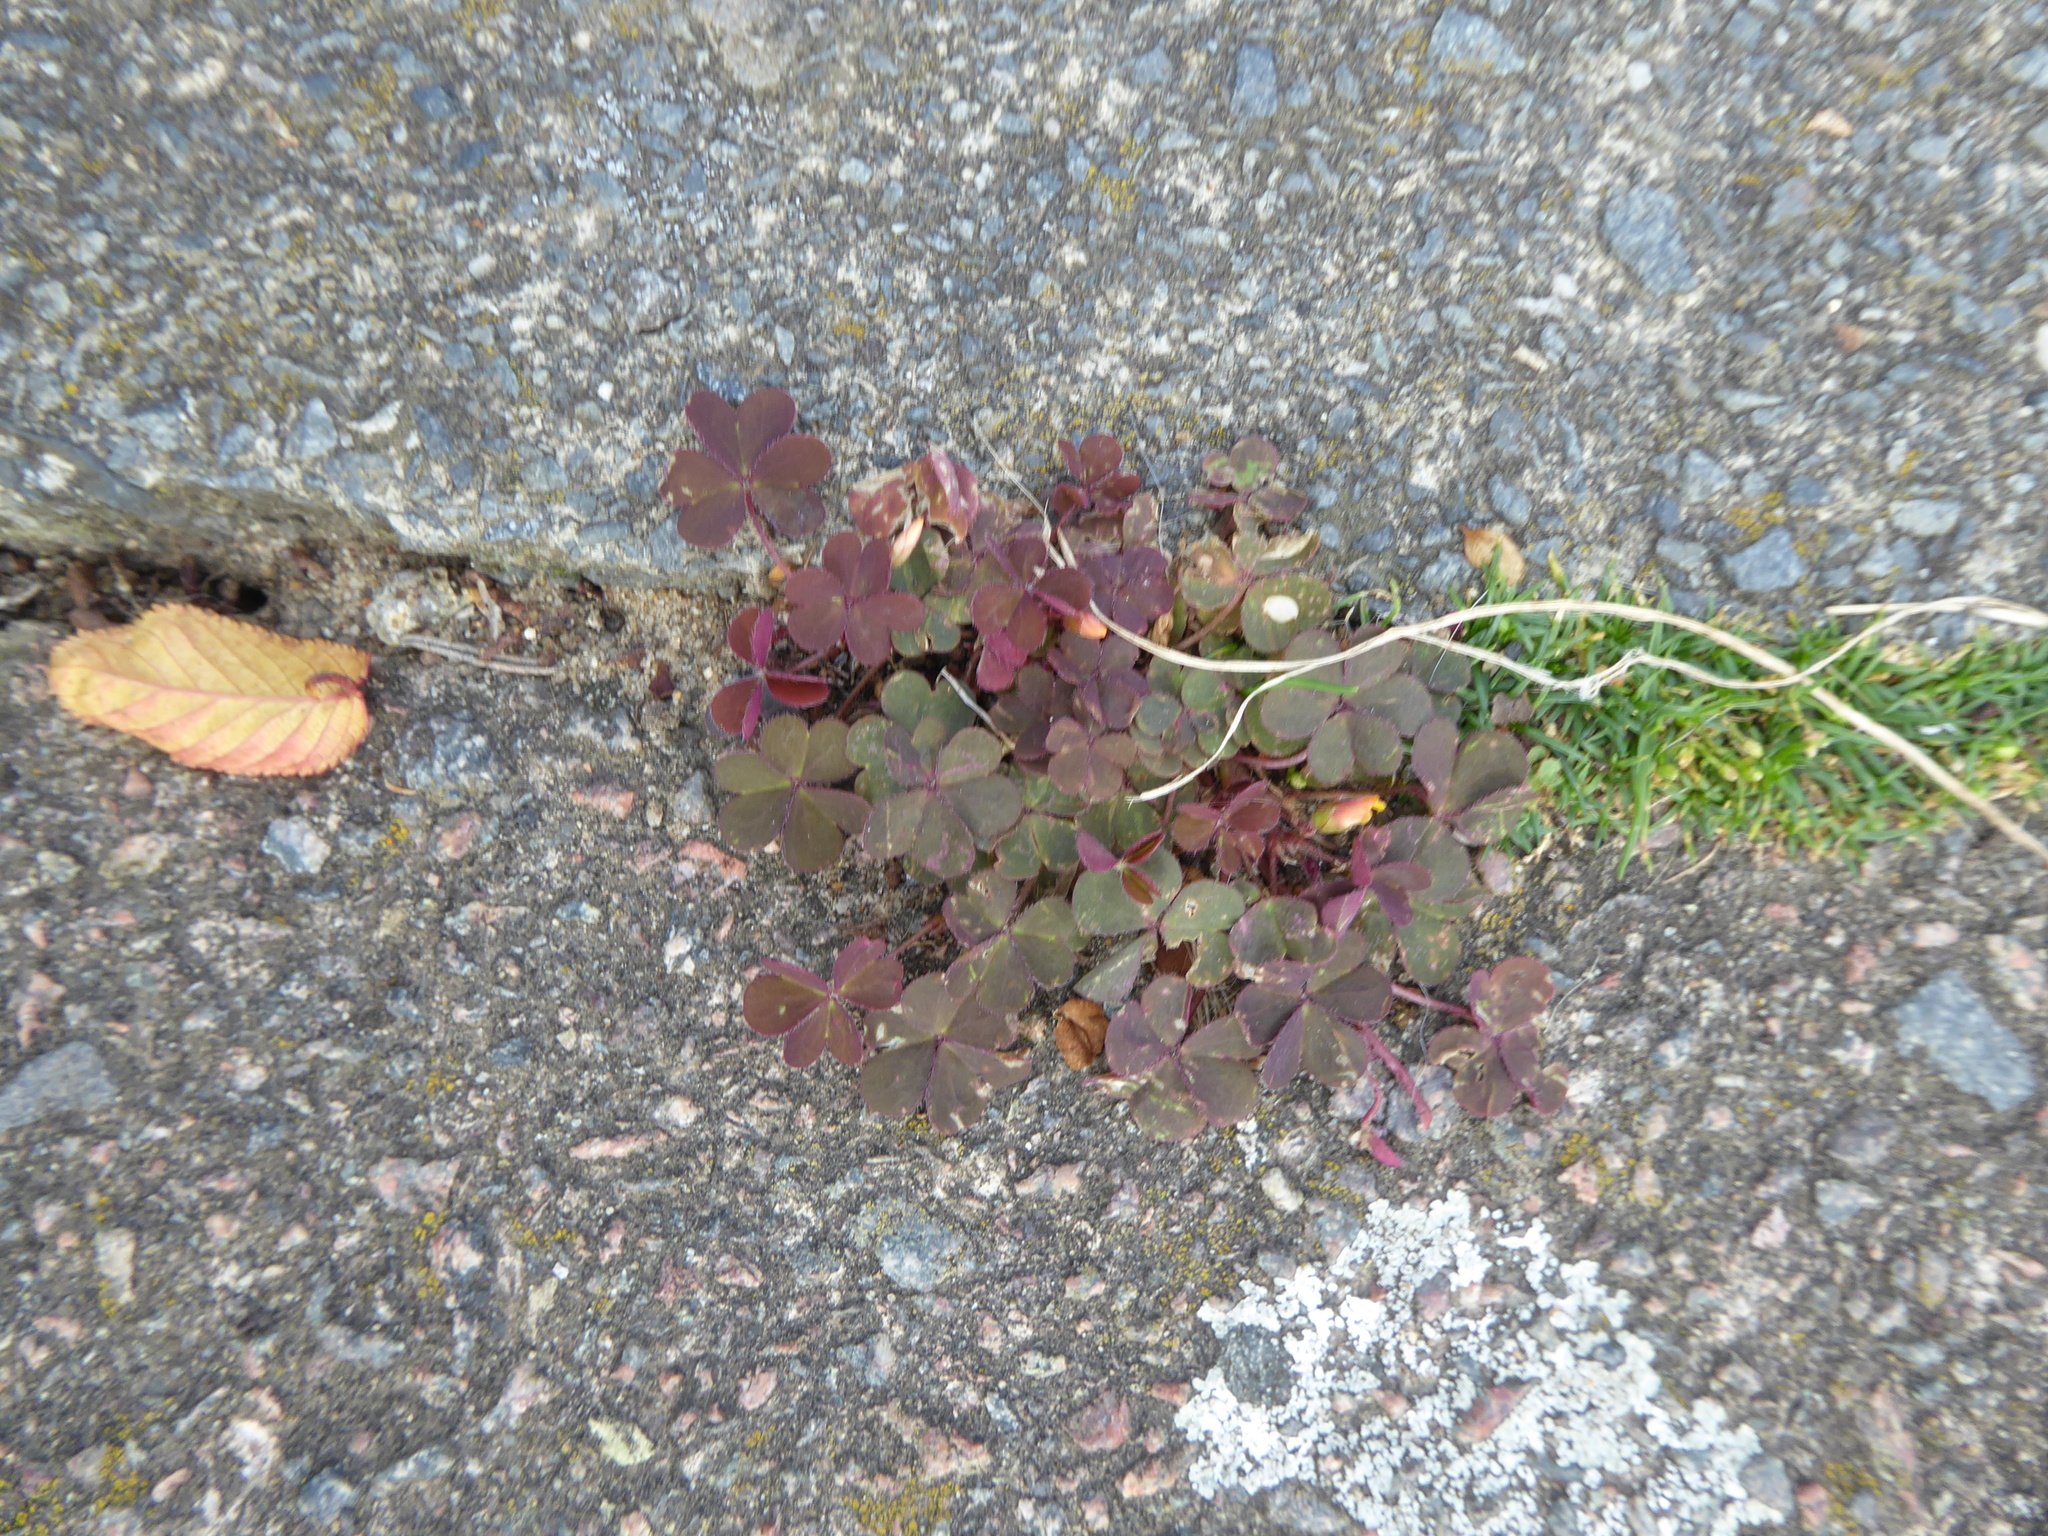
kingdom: Plantae
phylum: Tracheophyta
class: Magnoliopsida
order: Oxalidales
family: Oxalidaceae
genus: Oxalis
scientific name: Oxalis corniculata
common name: Procumbent yellow-sorrel
